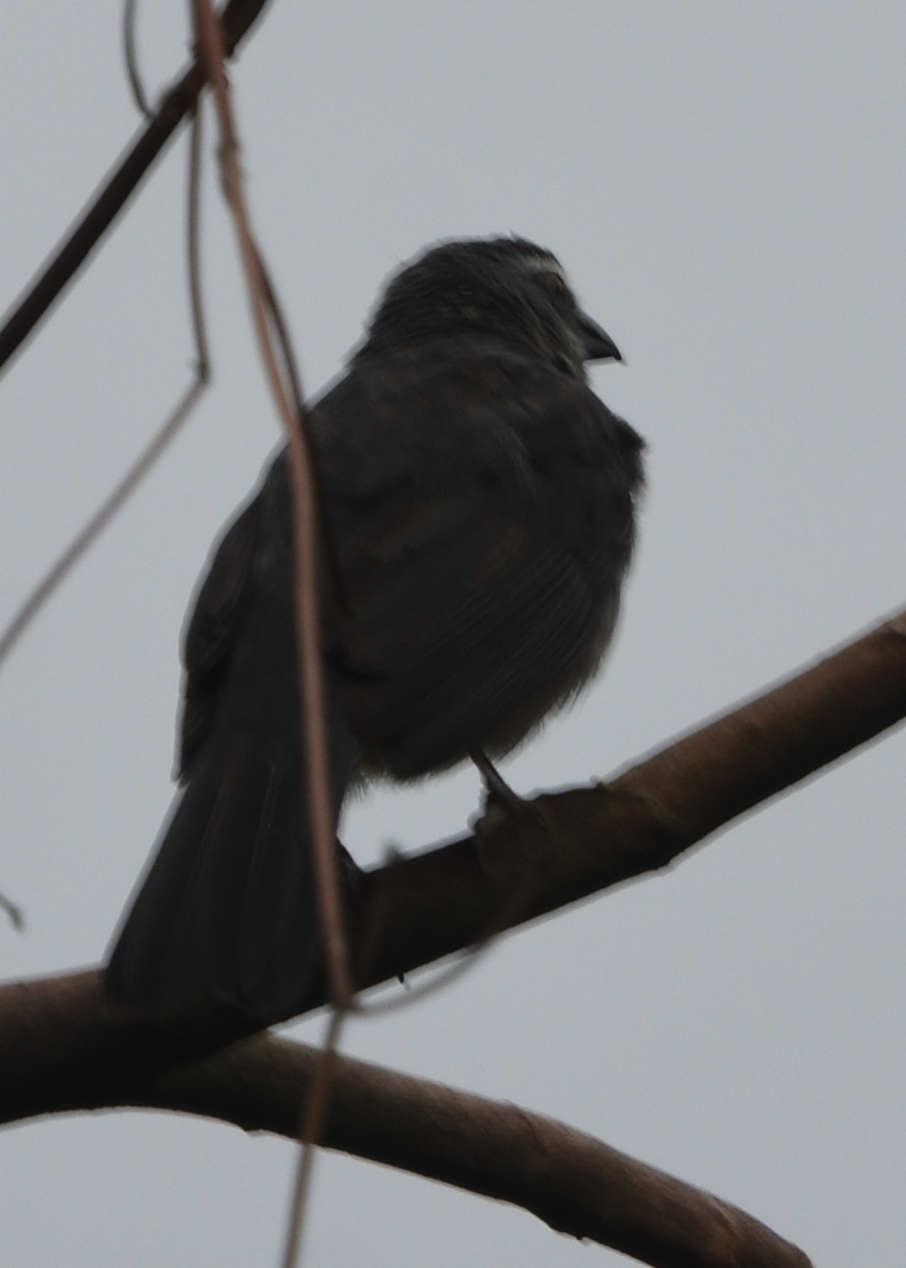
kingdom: Animalia
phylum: Chordata
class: Aves
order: Passeriformes
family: Thraupidae
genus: Saltator
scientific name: Saltator coerulescens
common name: Grayish saltator
